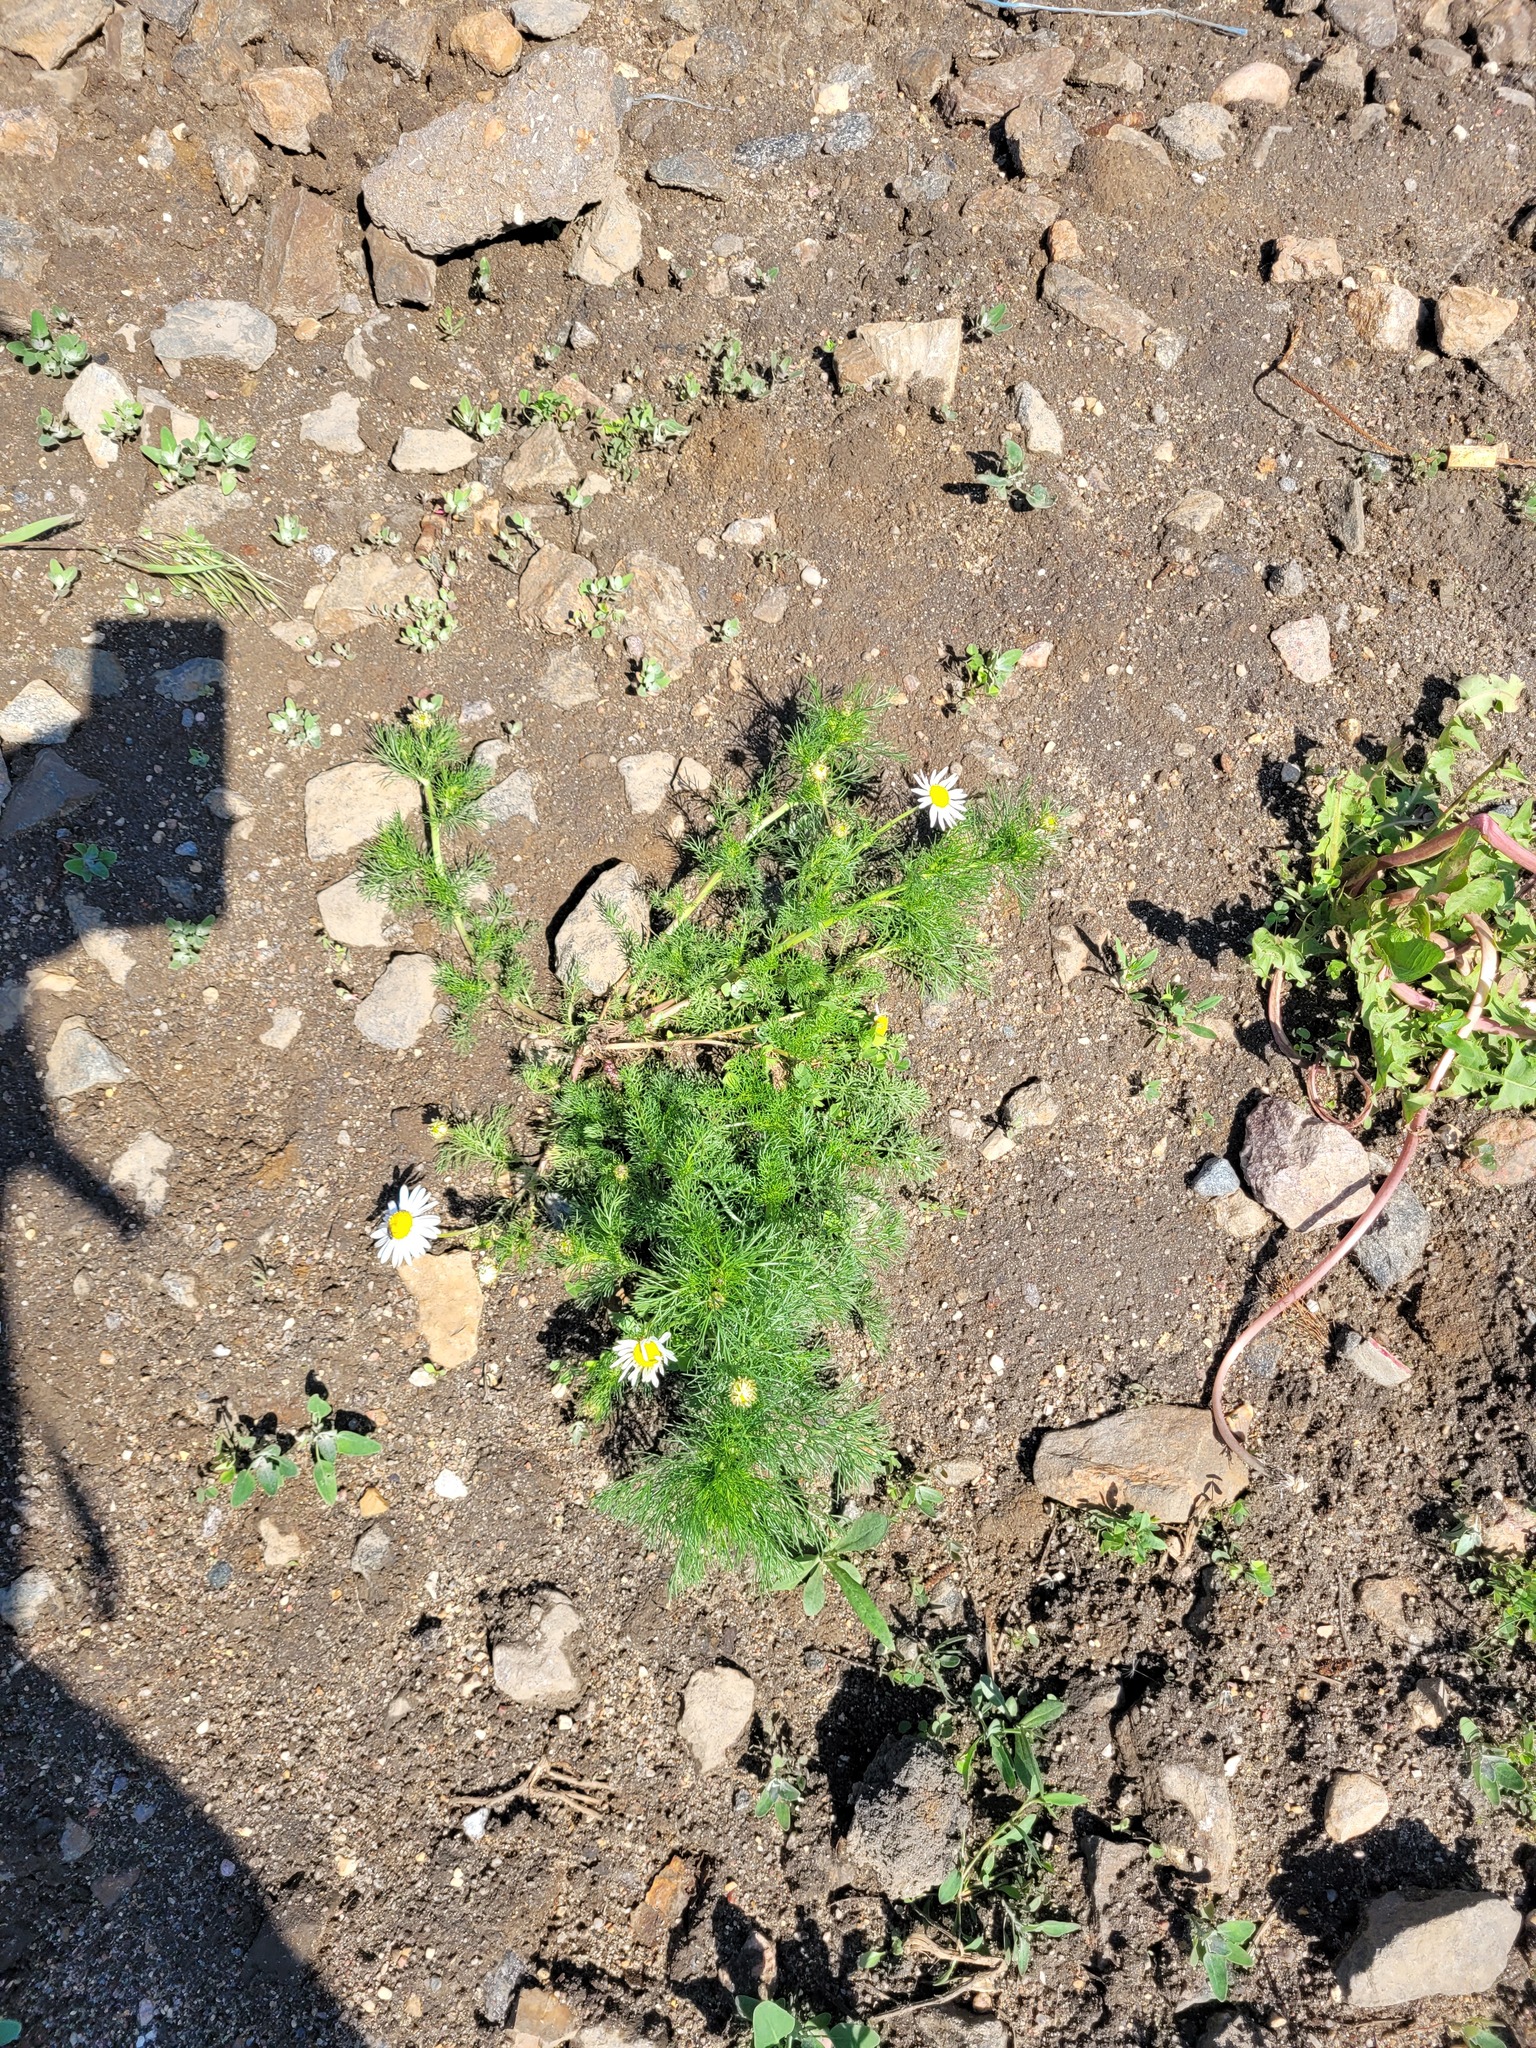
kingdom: Plantae
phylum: Tracheophyta
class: Magnoliopsida
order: Asterales
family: Asteraceae
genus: Tripleurospermum
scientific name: Tripleurospermum inodorum
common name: Scentless mayweed
